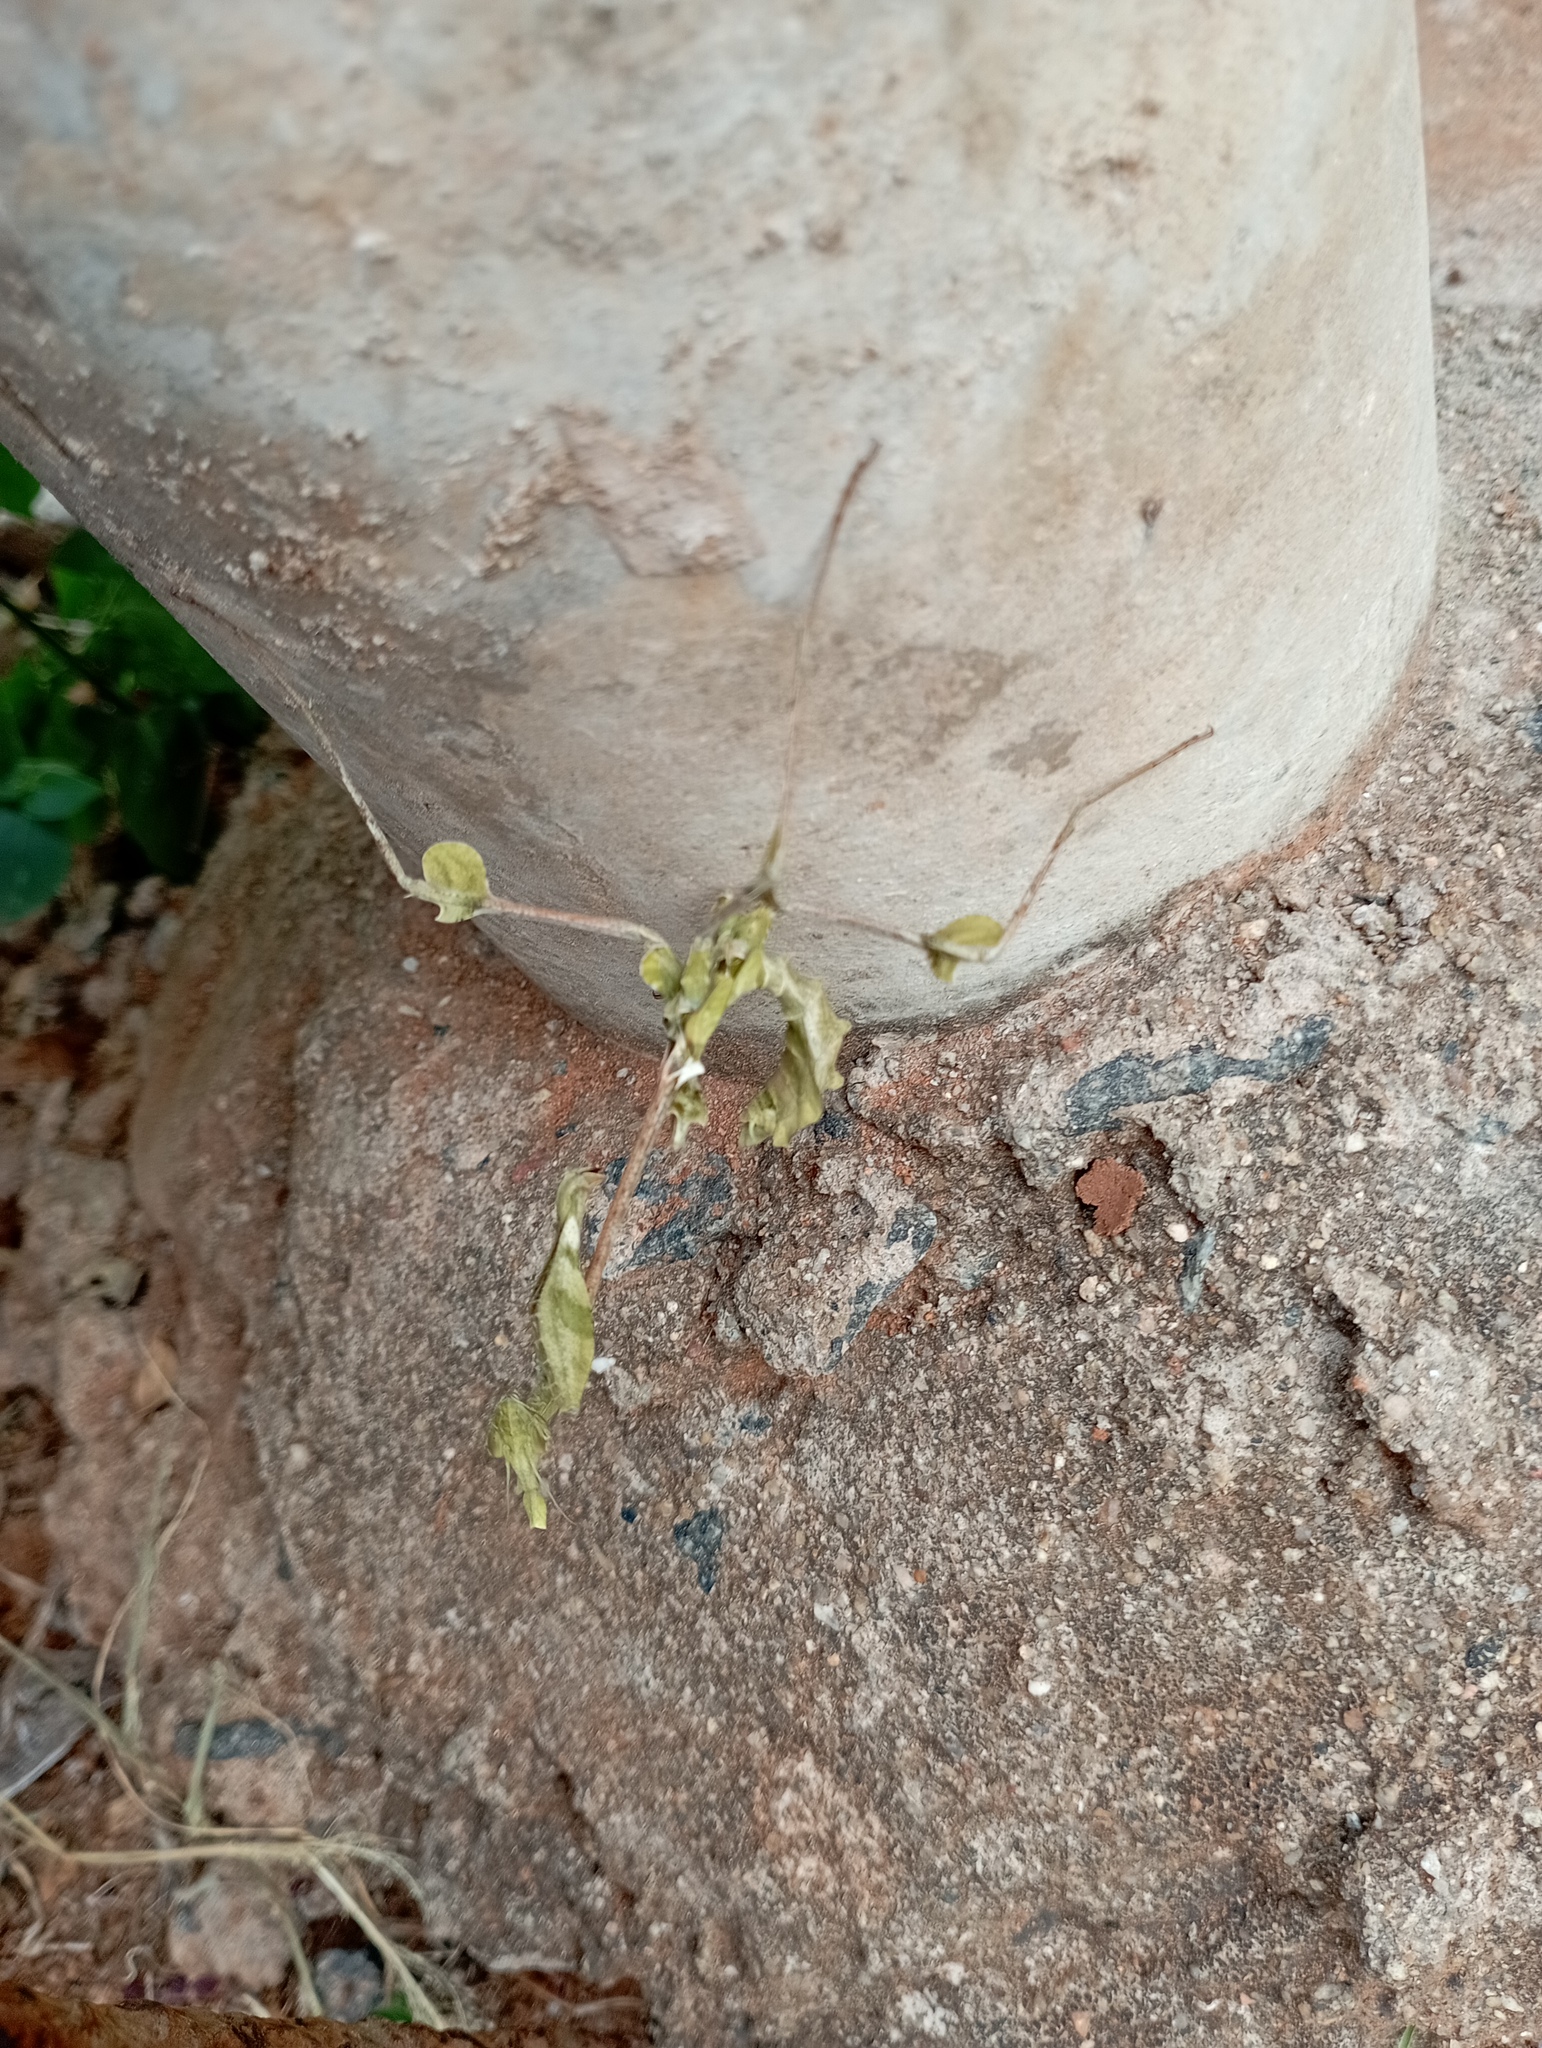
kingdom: Animalia
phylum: Arthropoda
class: Insecta
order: Mantodea
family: Empusidae
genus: Gongylus
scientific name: Gongylus gongylodes
